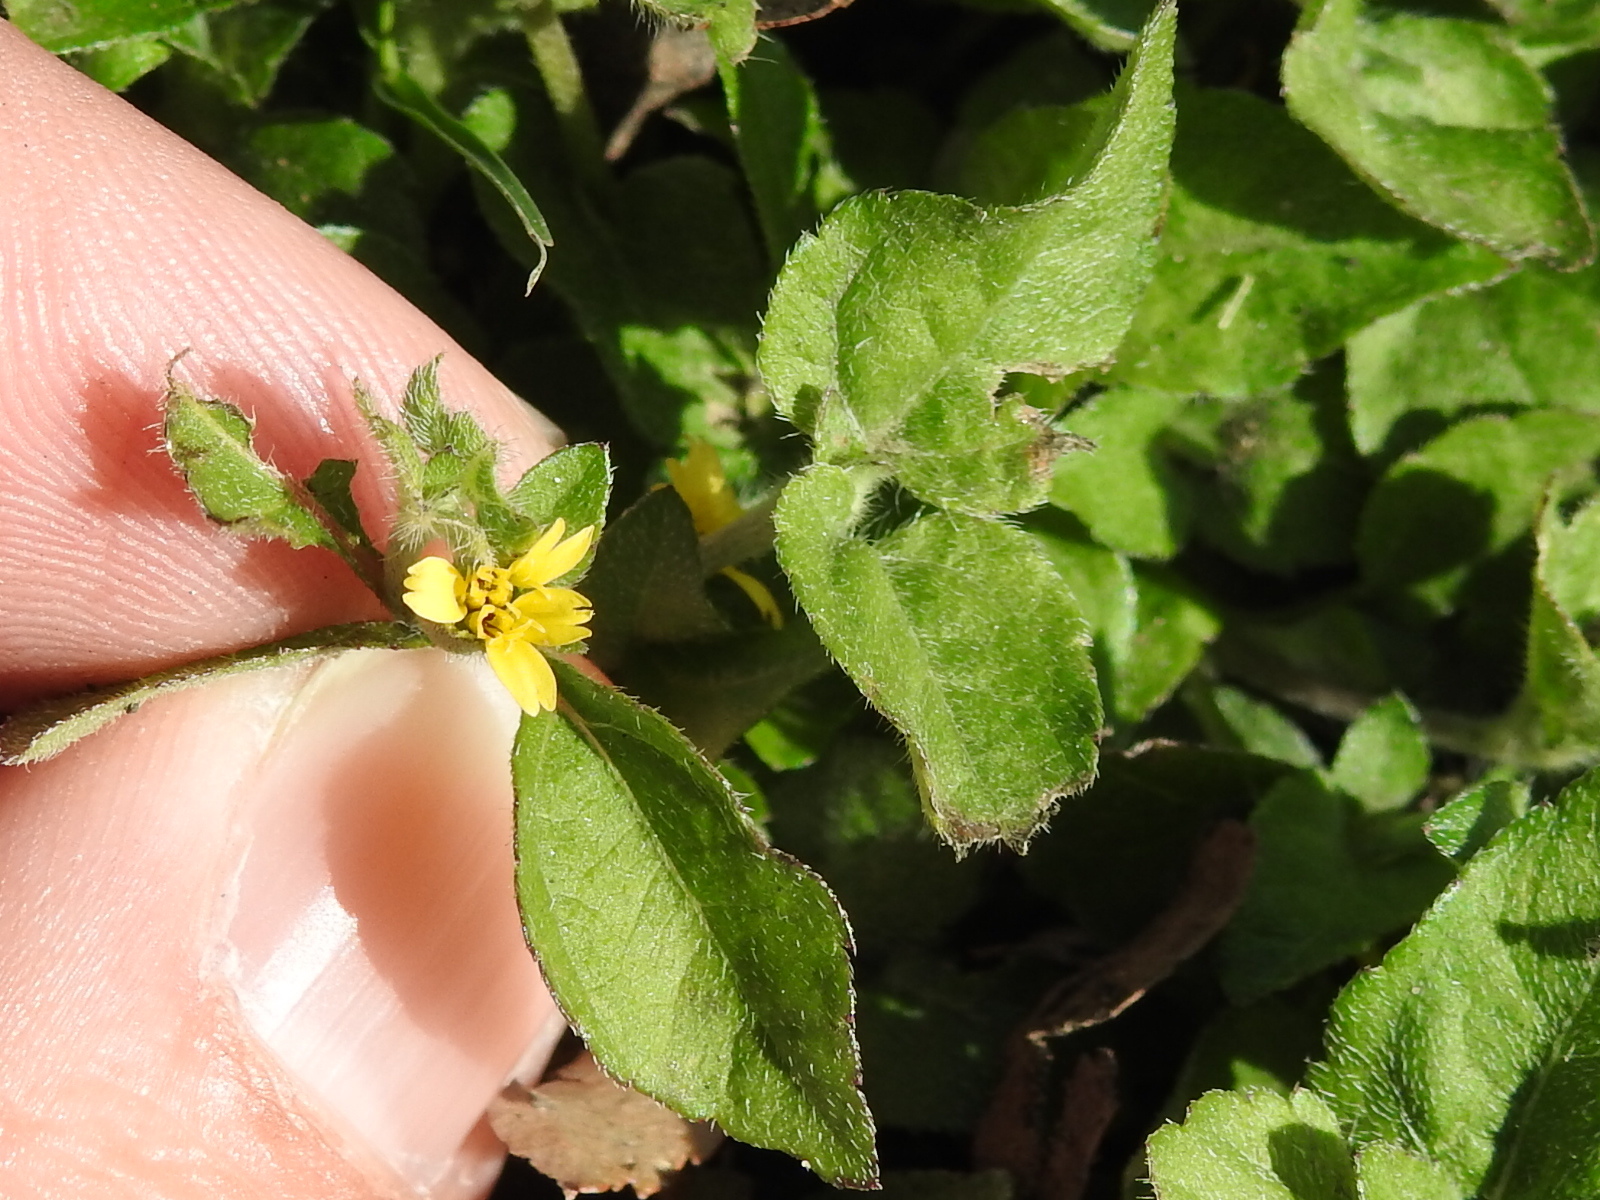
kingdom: Plantae
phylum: Tracheophyta
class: Magnoliopsida
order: Asterales
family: Asteraceae
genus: Calyptocarpus
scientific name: Calyptocarpus vialis
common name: Straggler daisy
